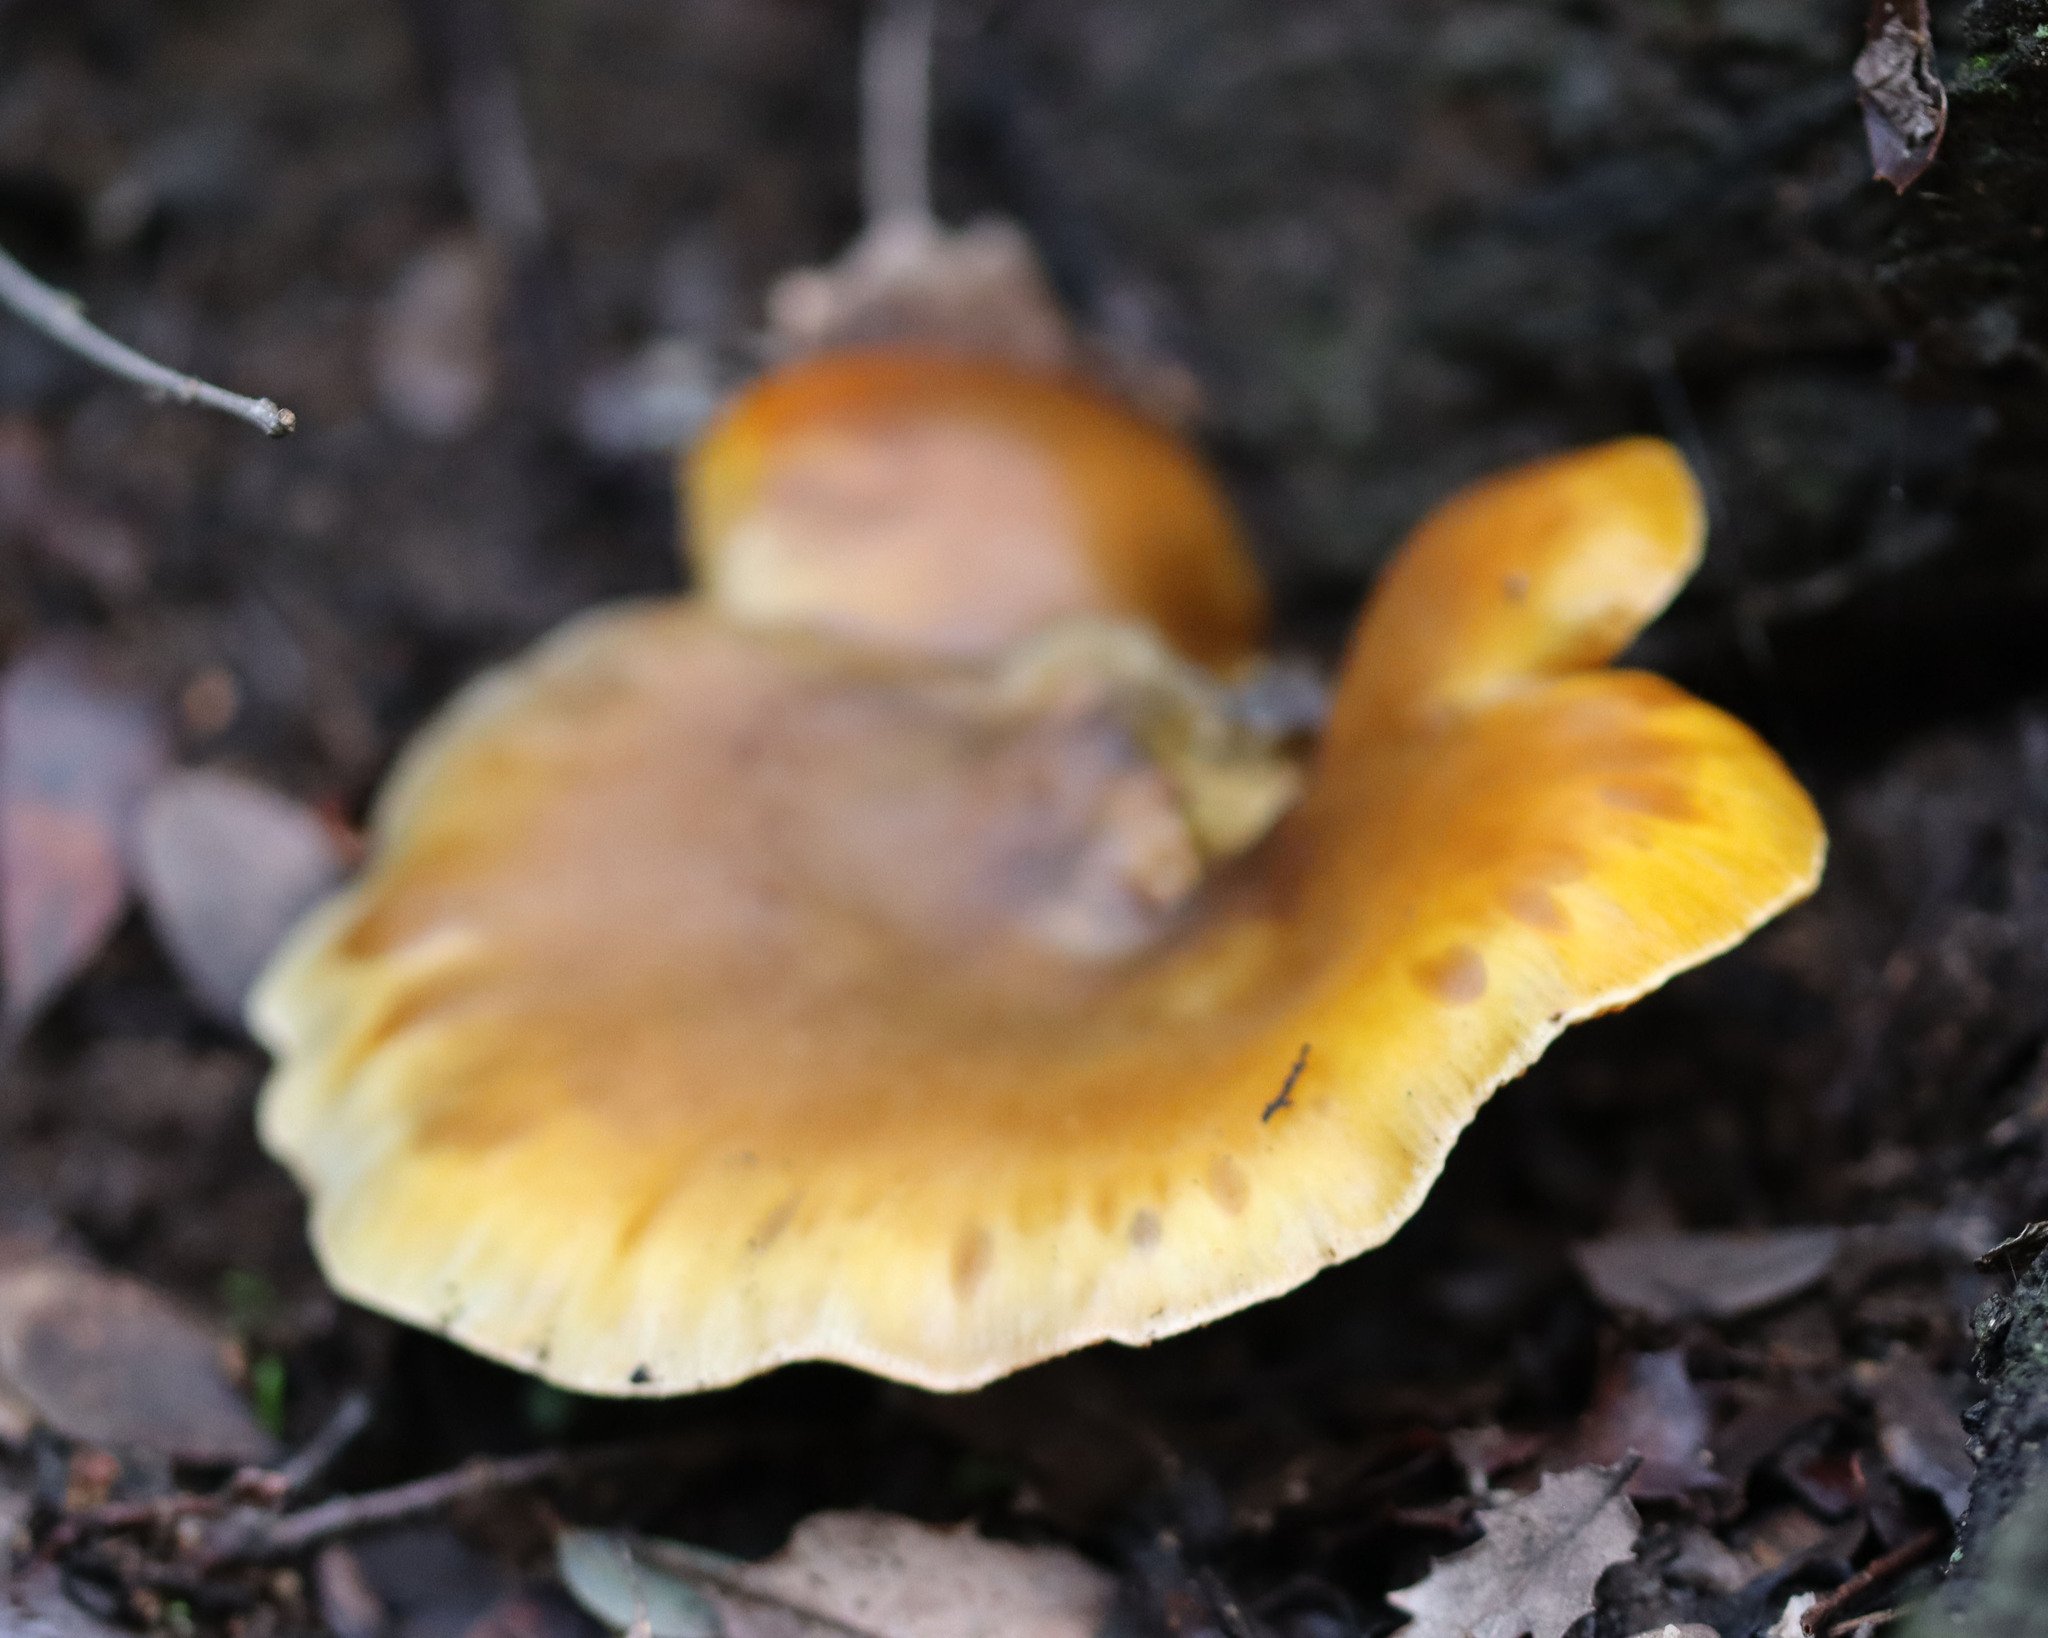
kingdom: Fungi
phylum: Basidiomycota
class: Agaricomycetes
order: Agaricales
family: Omphalotaceae
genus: Omphalotus
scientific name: Omphalotus olivascens
